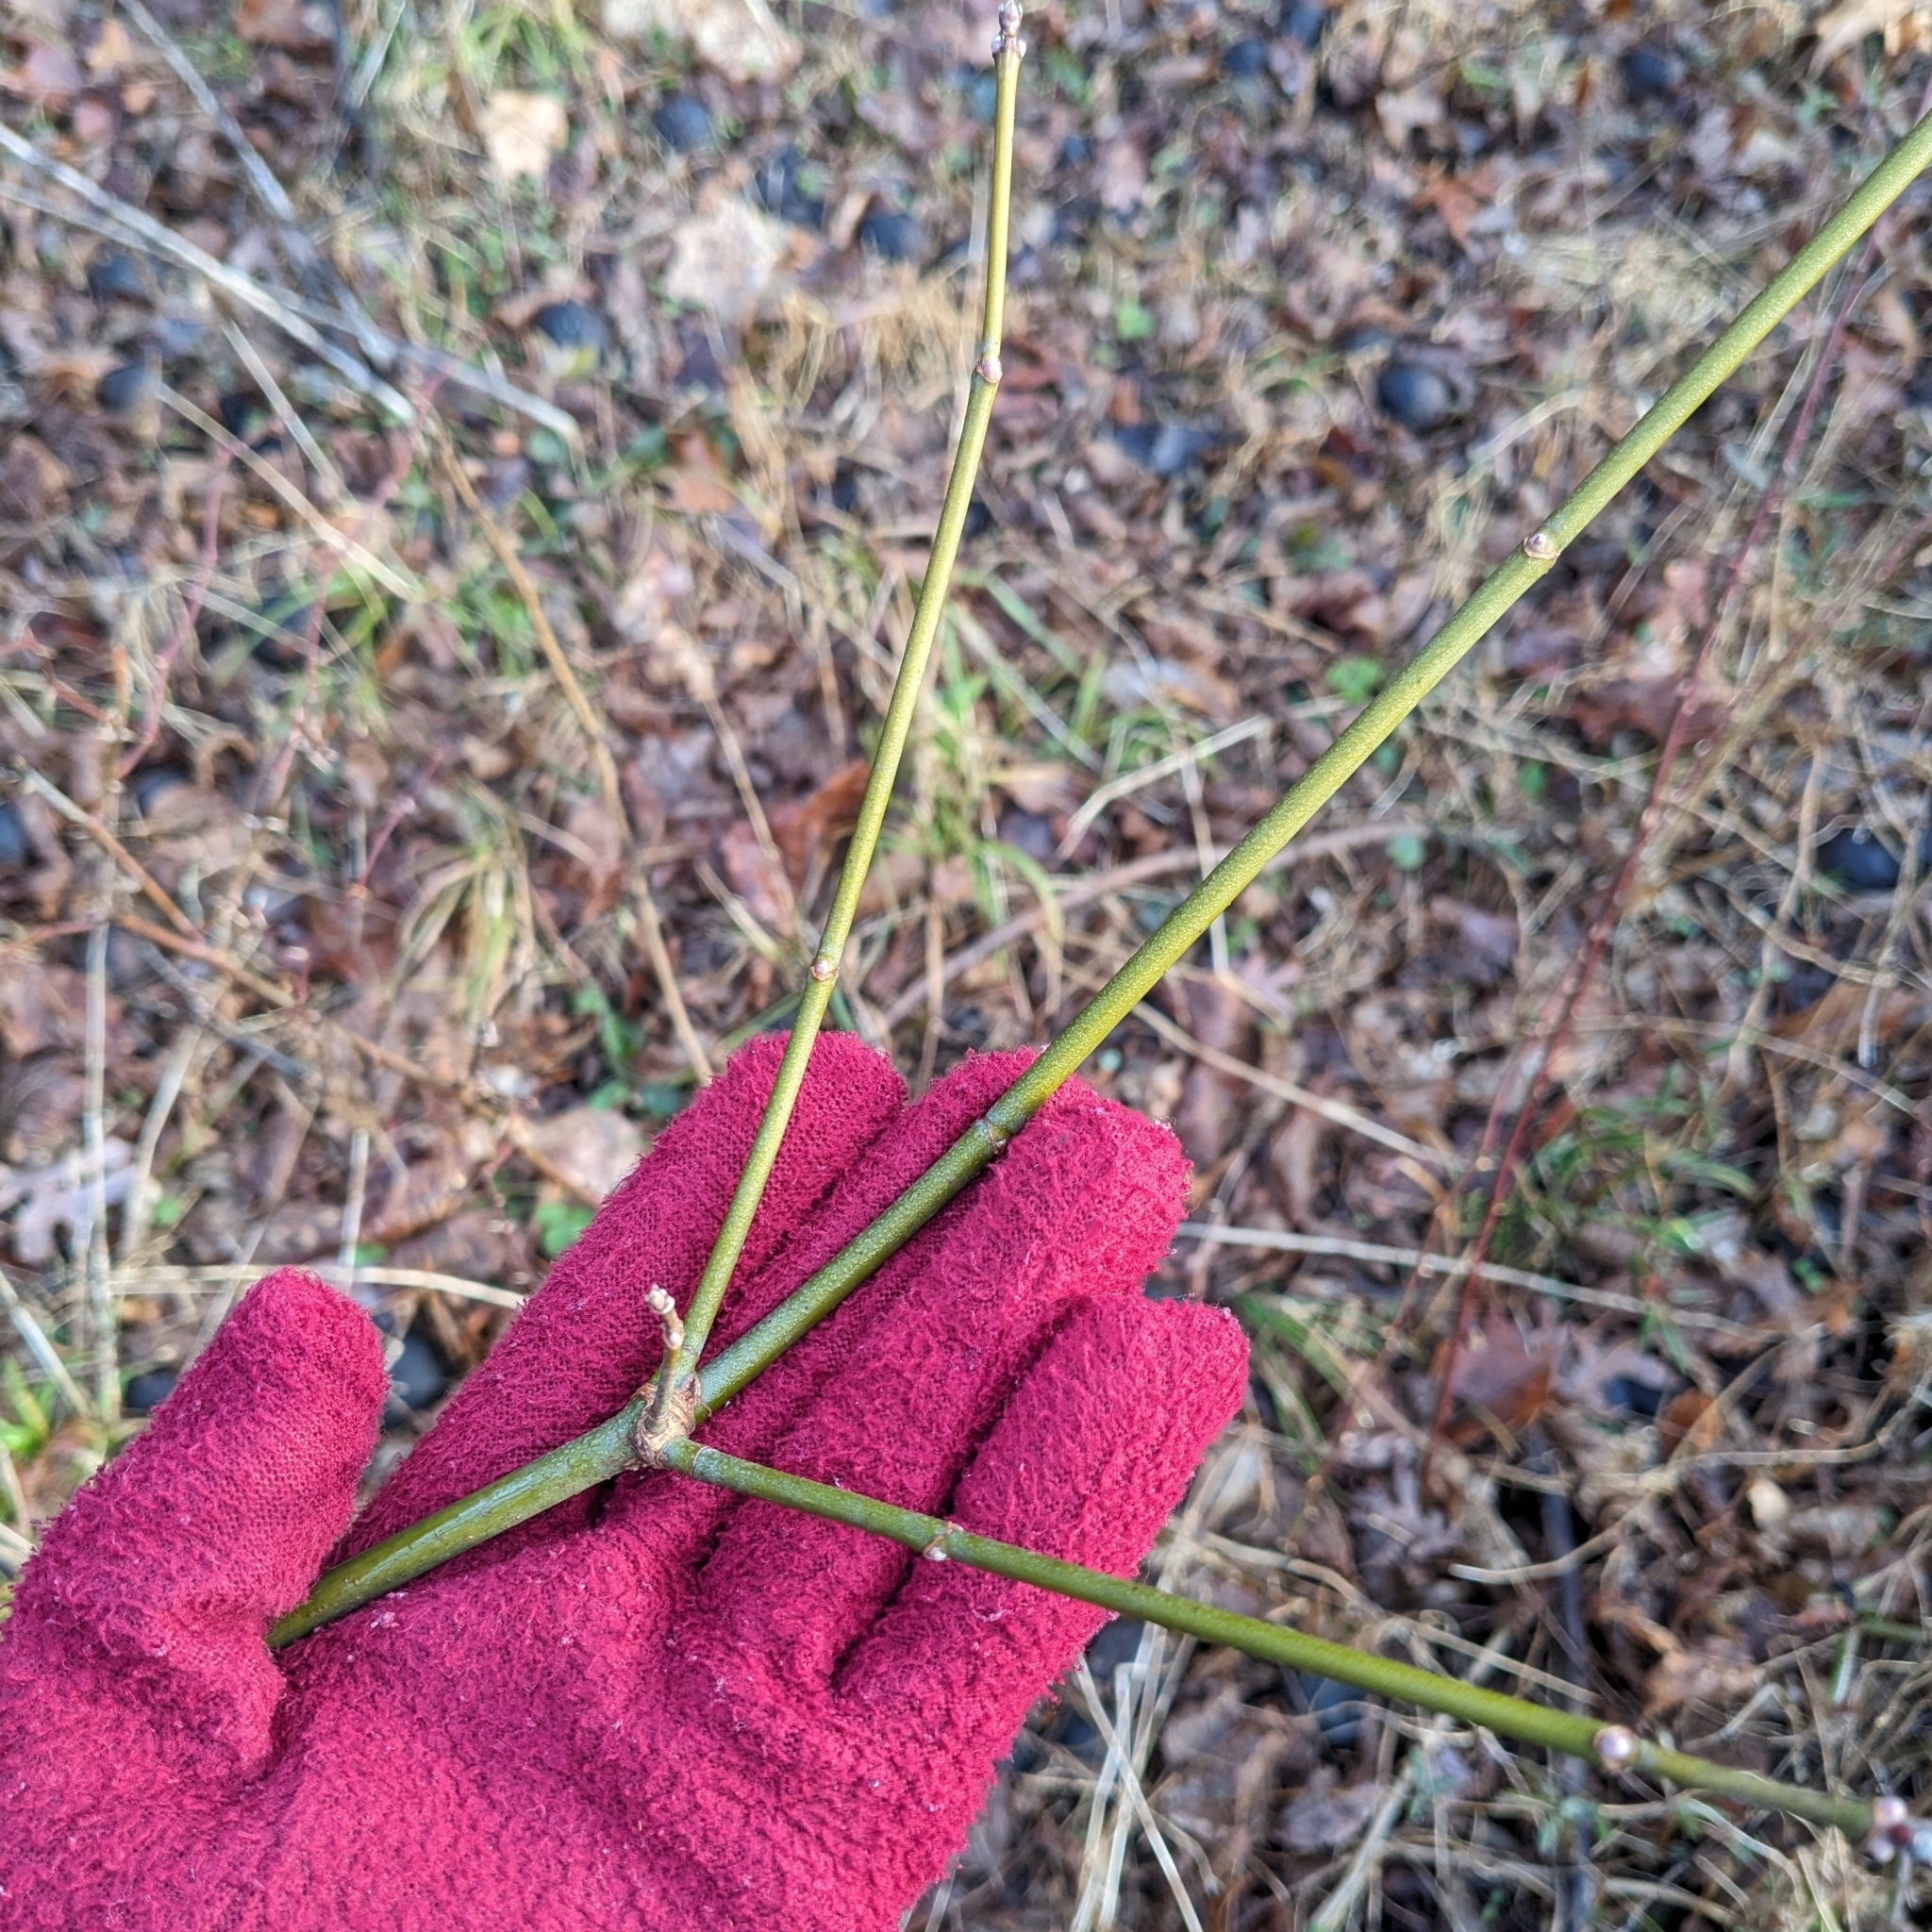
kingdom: Plantae
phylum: Tracheophyta
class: Magnoliopsida
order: Sapindales
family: Sapindaceae
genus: Acer
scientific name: Acer negundo
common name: Ashleaf maple
